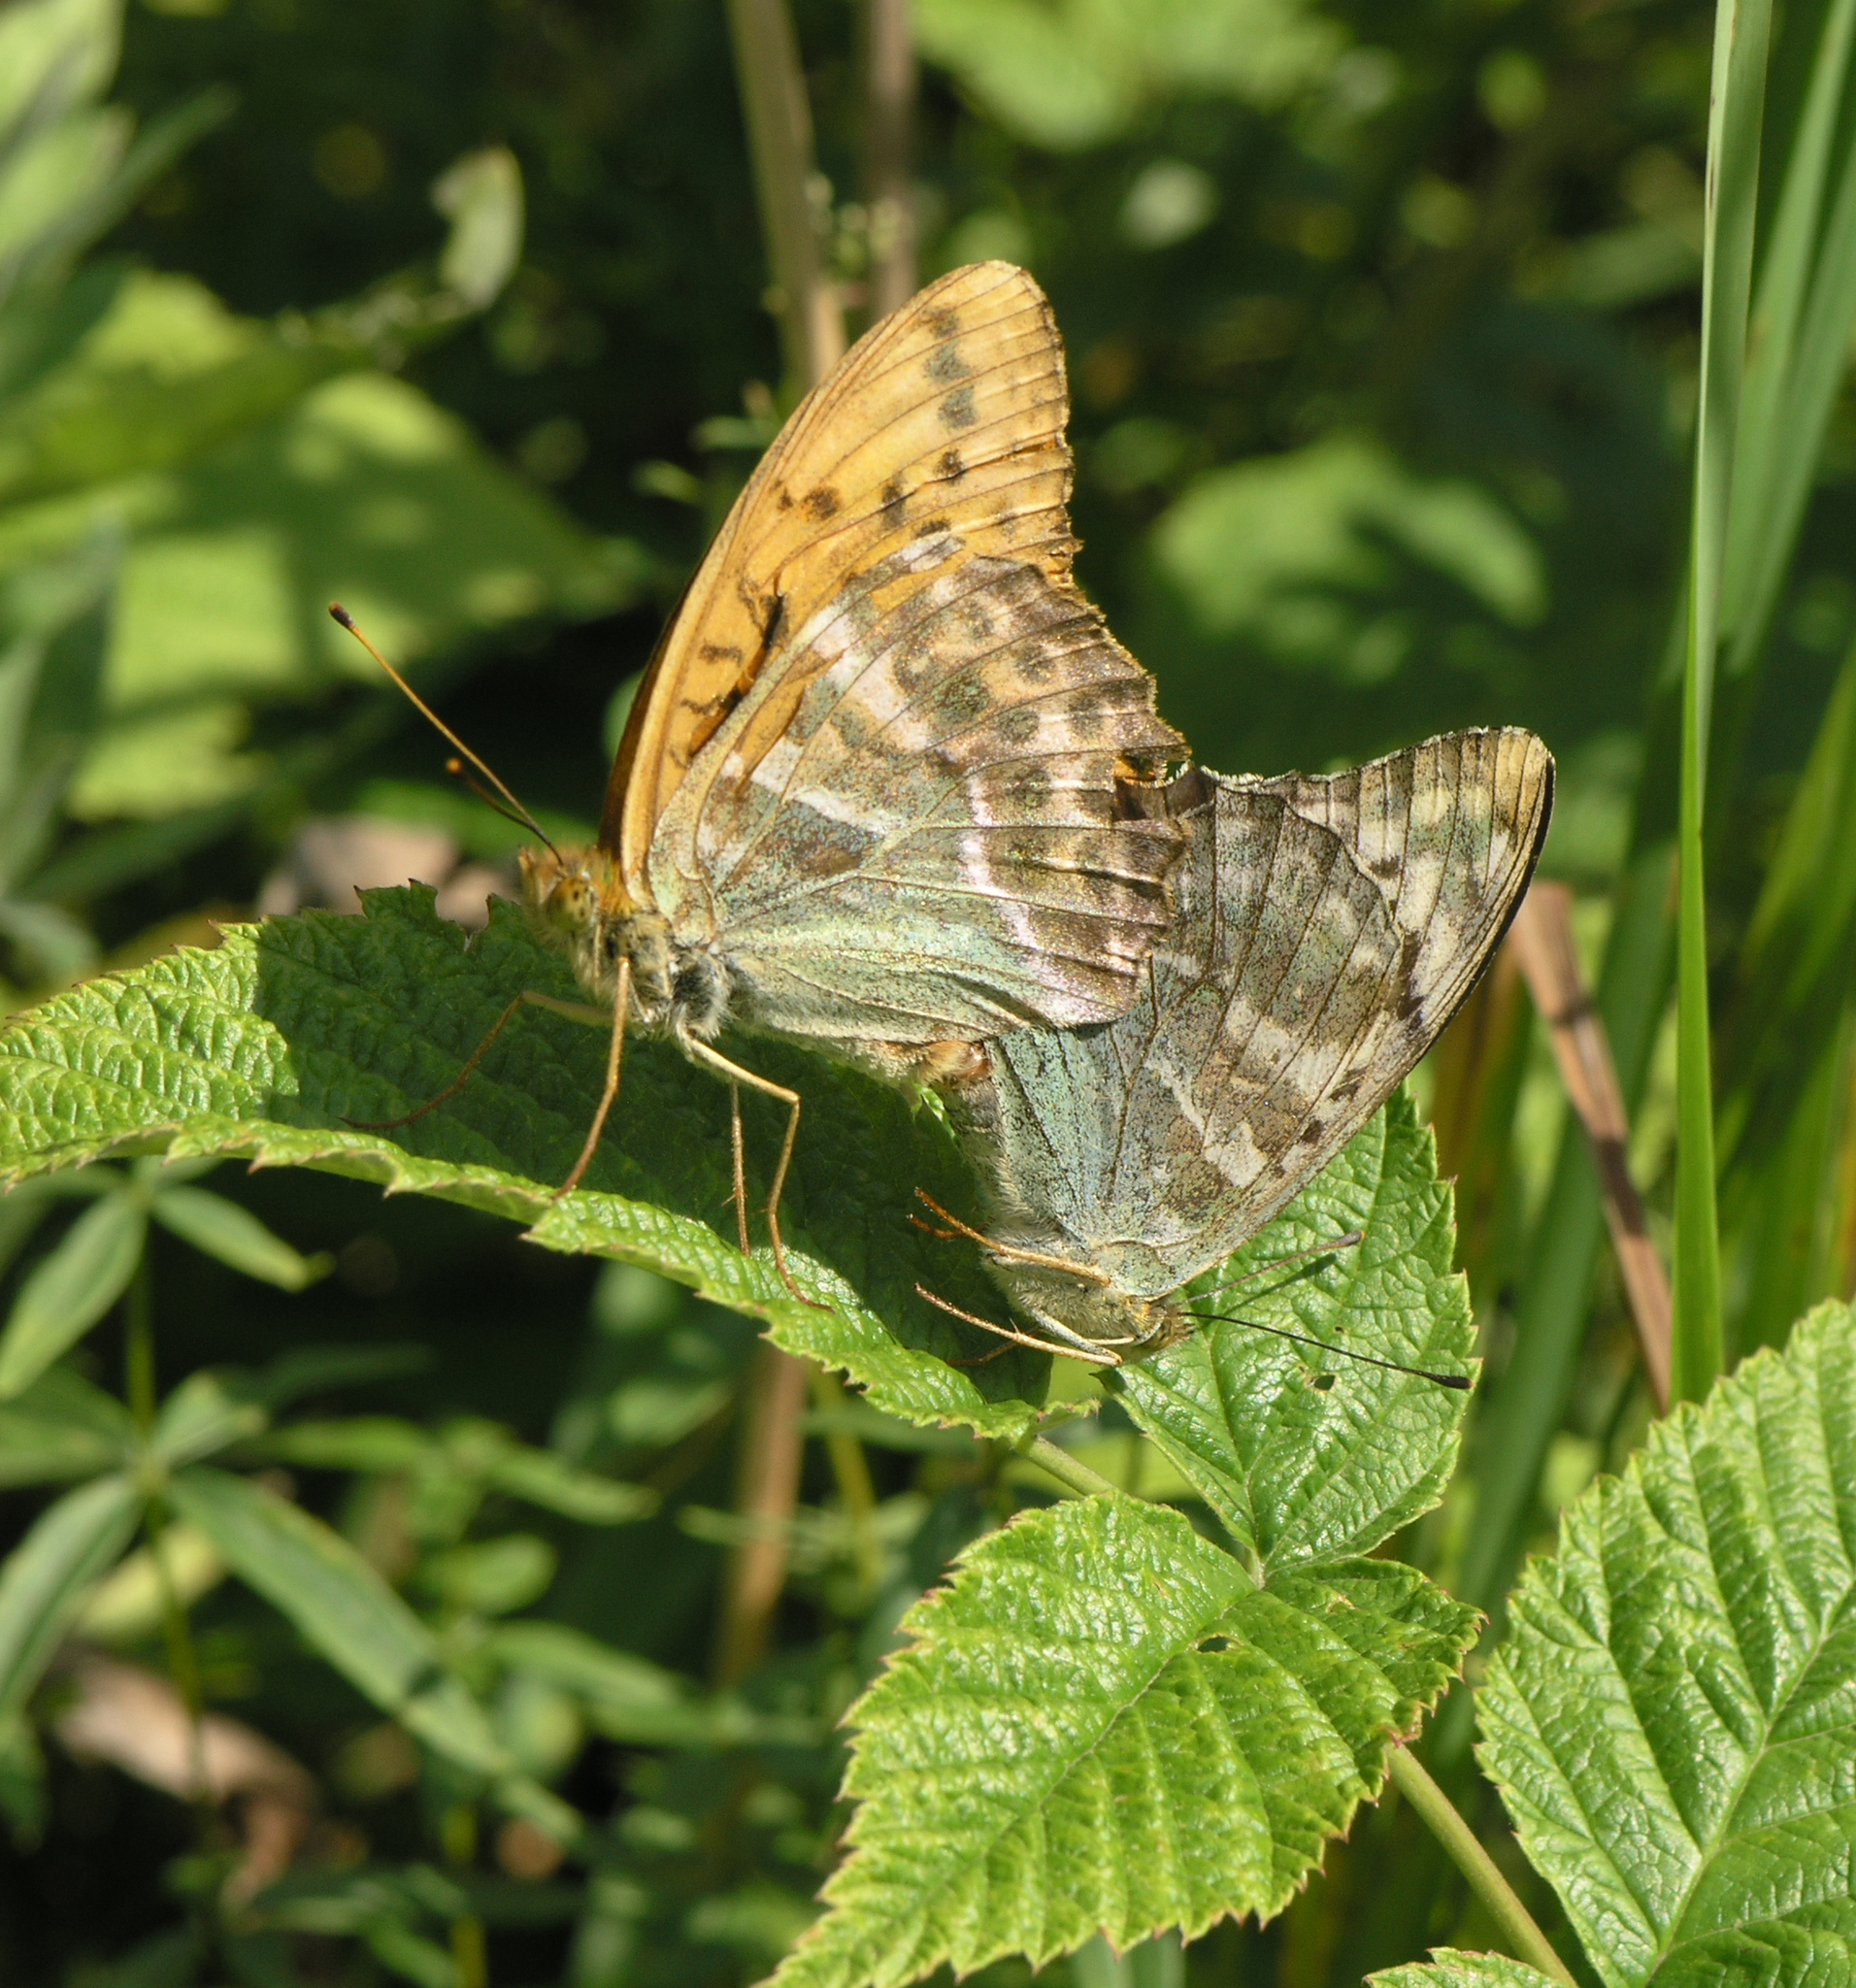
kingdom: Animalia
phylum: Arthropoda
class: Insecta
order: Lepidoptera
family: Nymphalidae
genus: Argynnis
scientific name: Argynnis paphia
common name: Silver-washed fritillary
